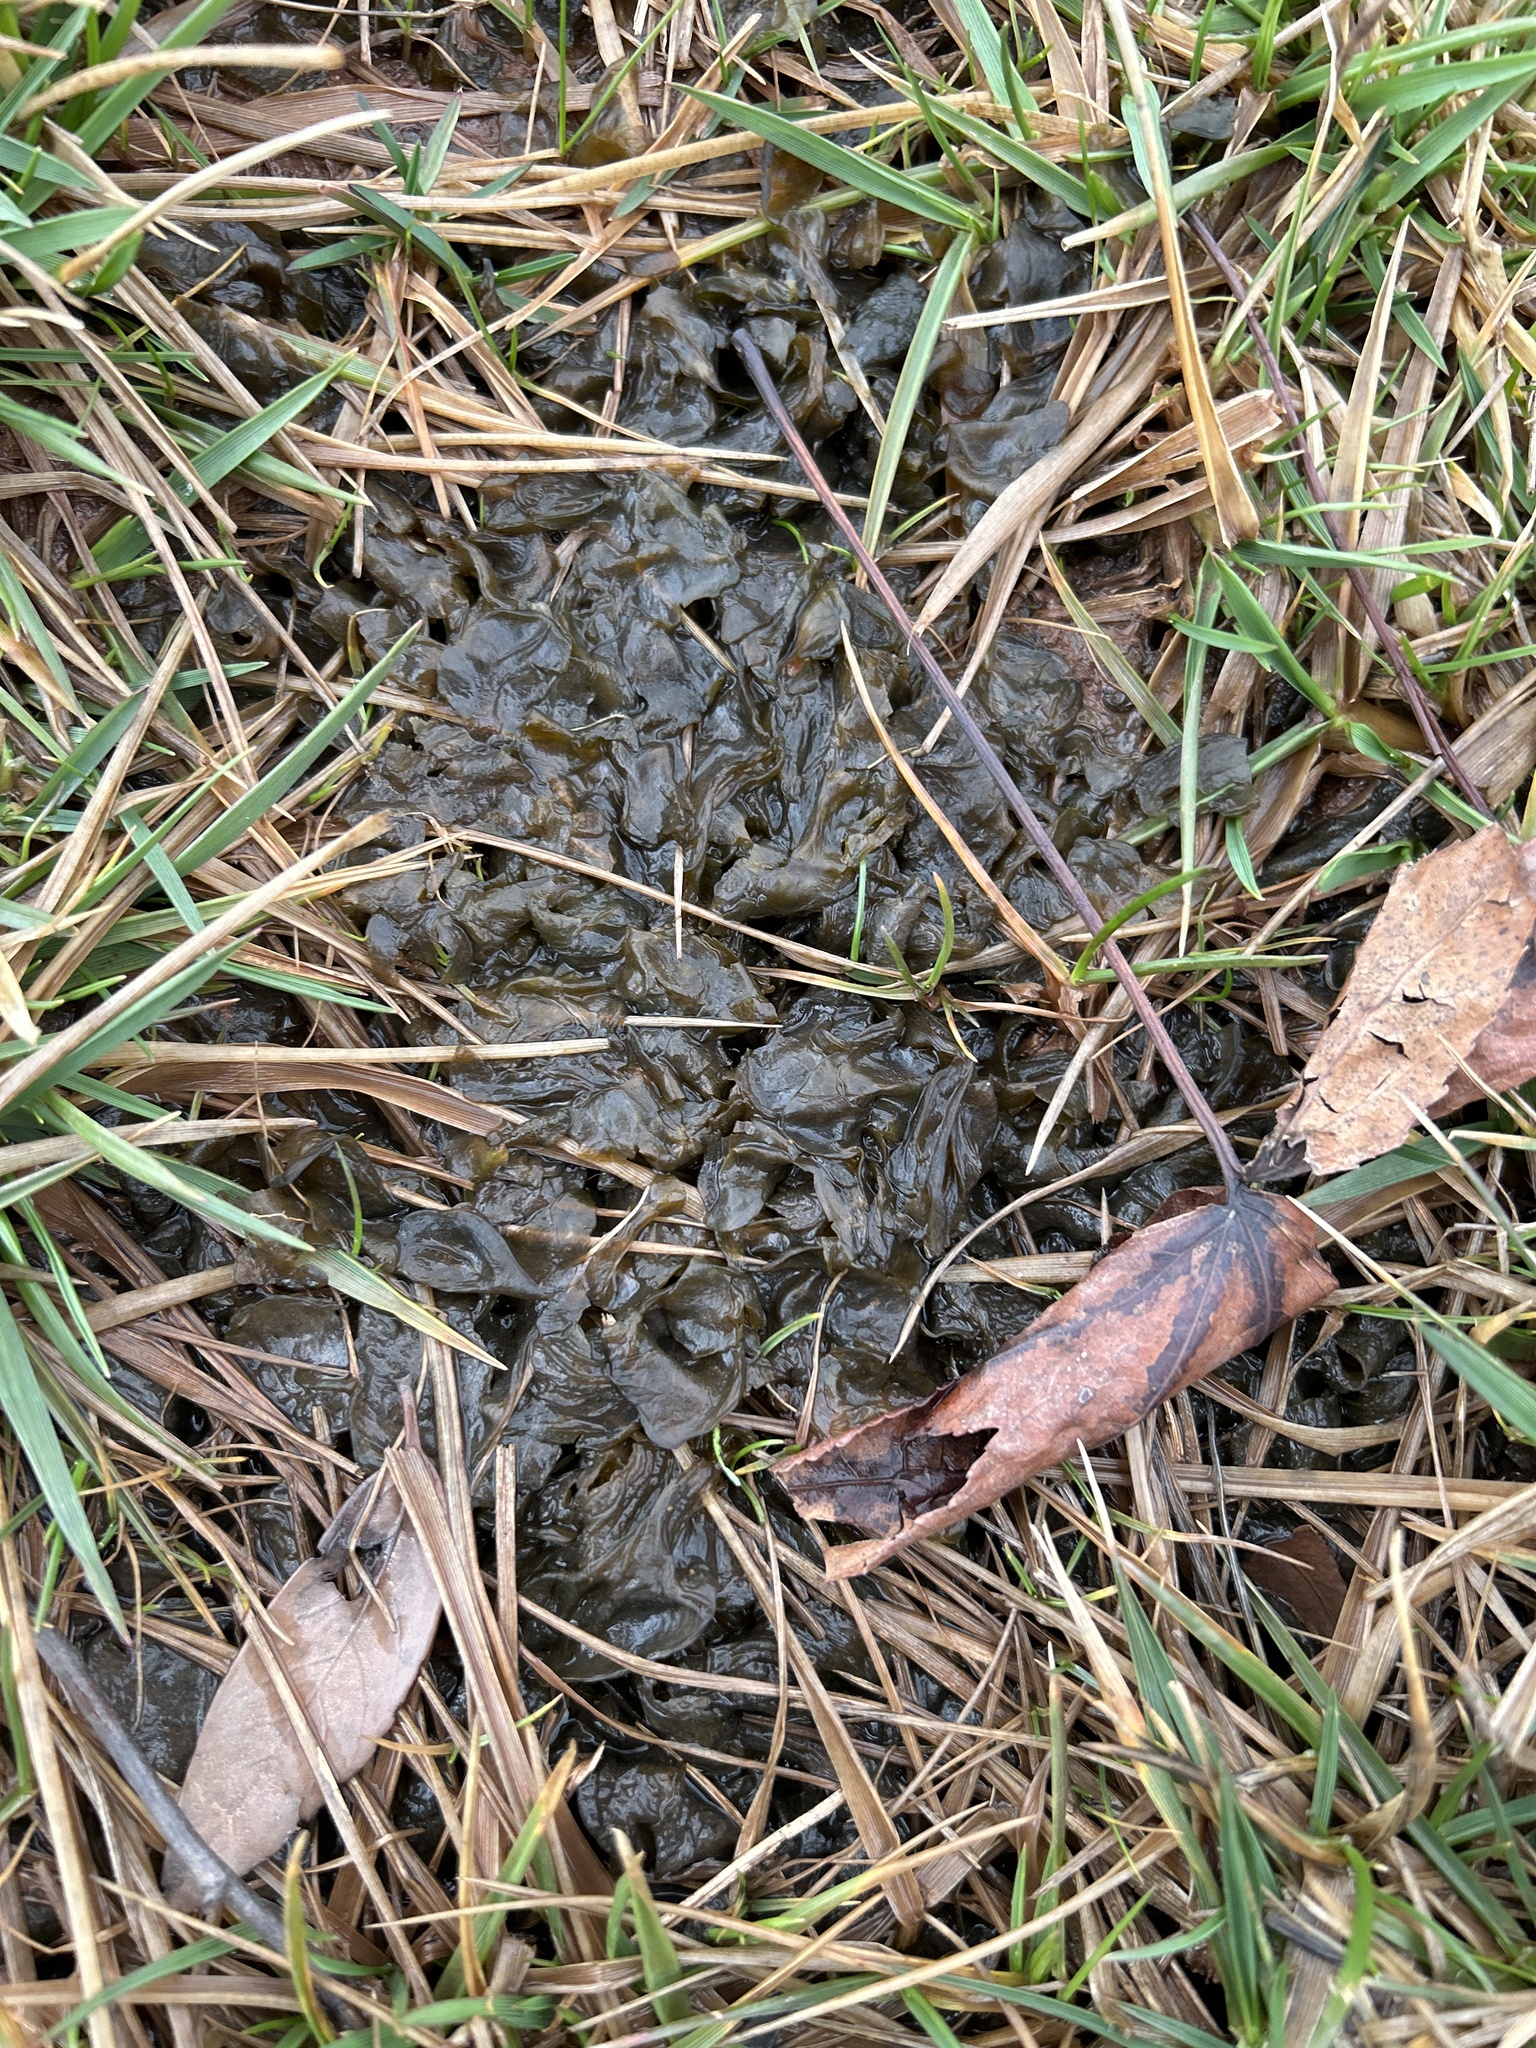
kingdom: Bacteria
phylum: Cyanobacteria
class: Cyanobacteriia
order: Cyanobacteriales
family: Nostocaceae
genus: Nostoc
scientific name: Nostoc commune
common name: Star jelly
